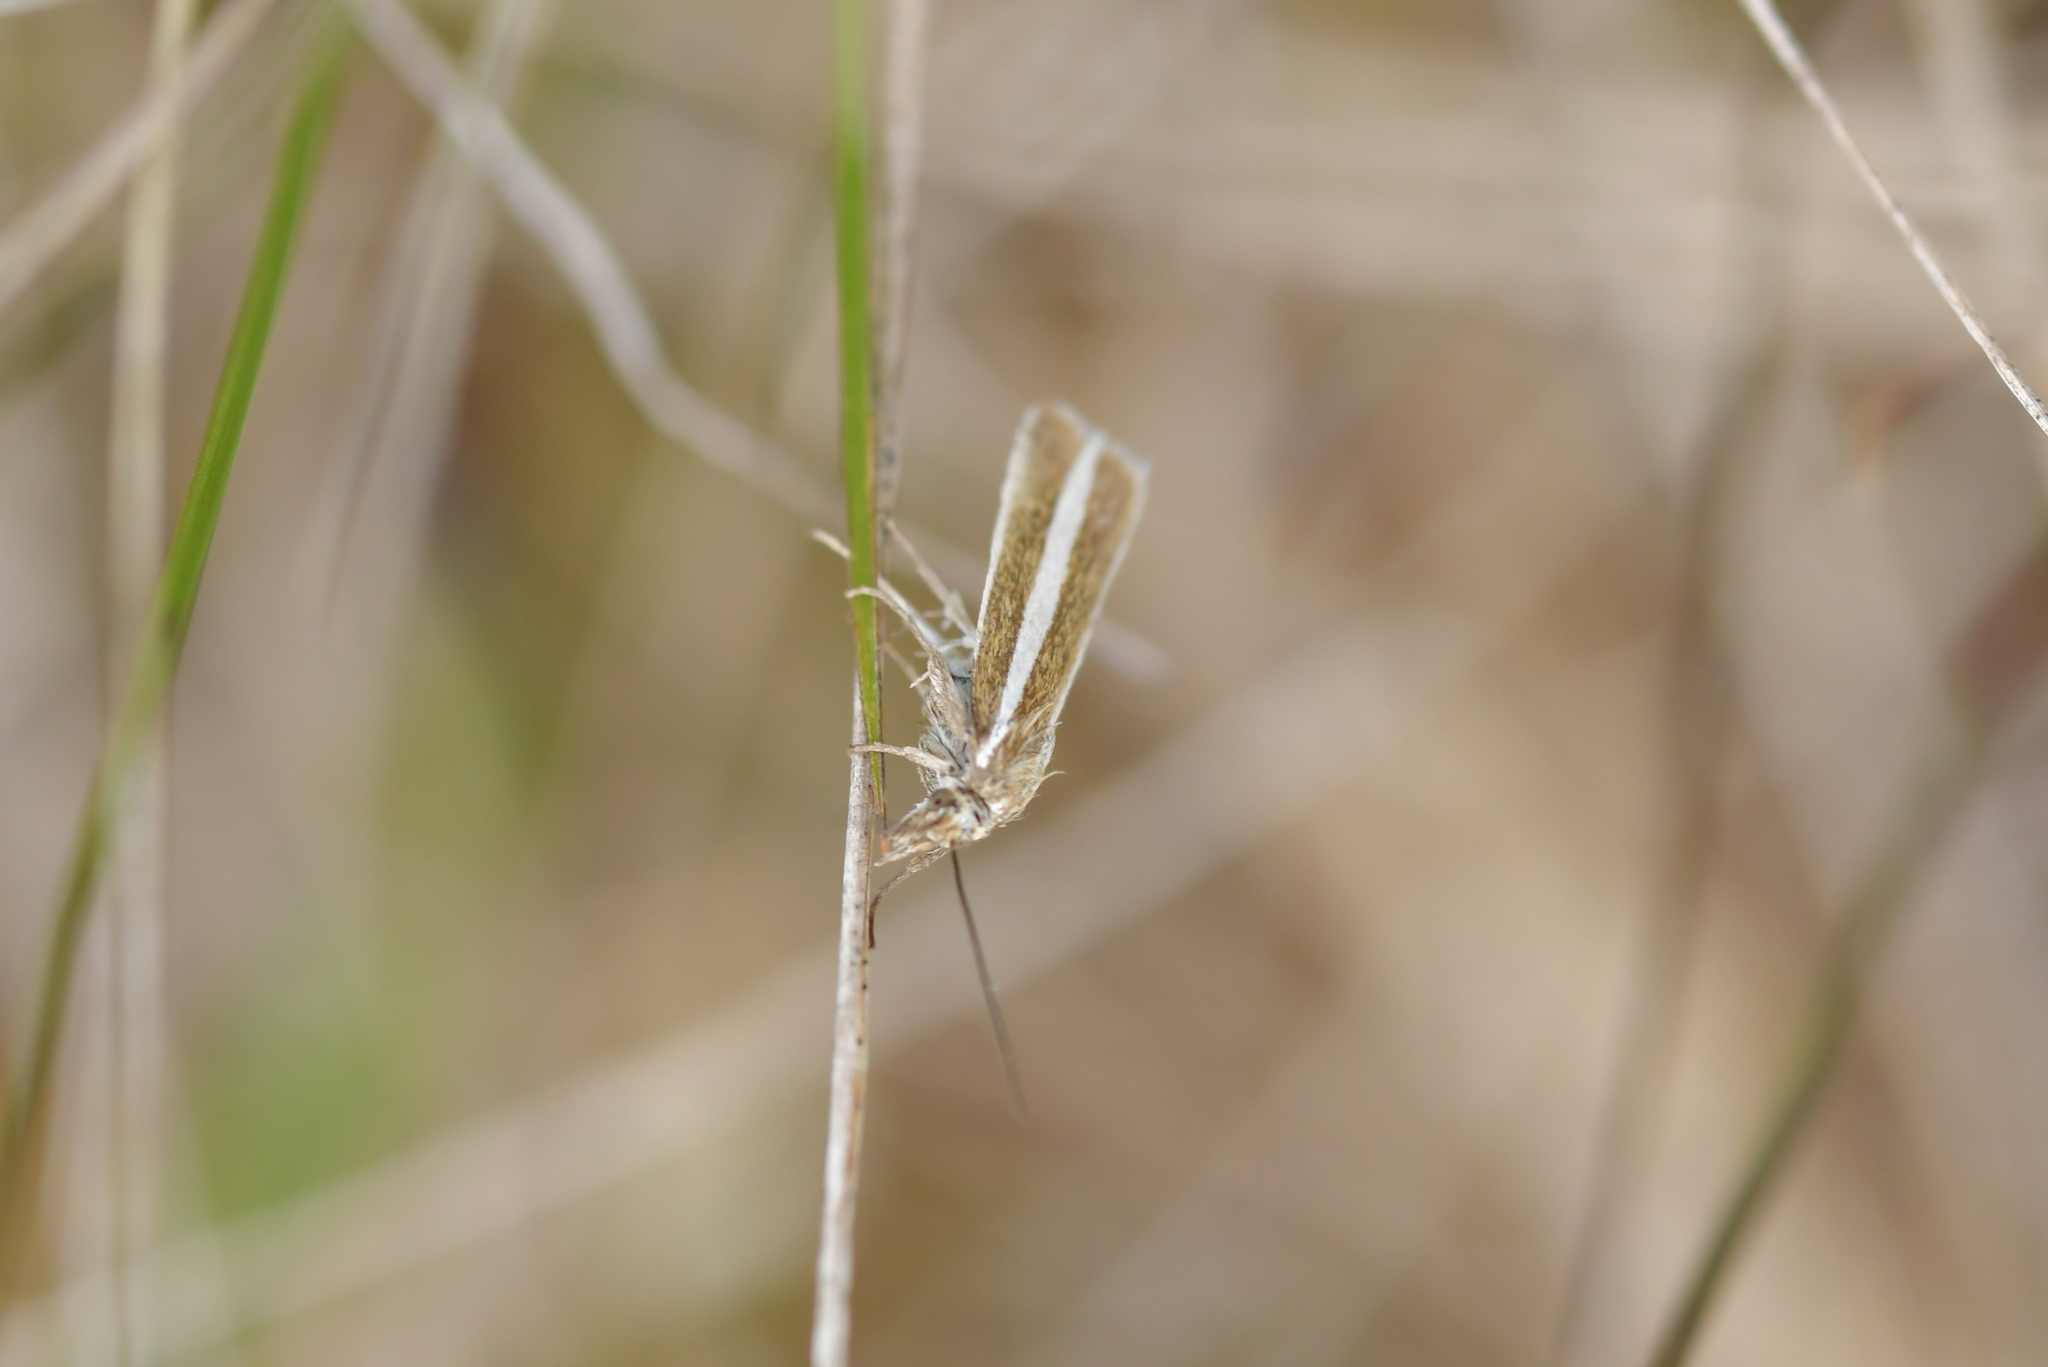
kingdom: Animalia
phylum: Arthropoda
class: Insecta
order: Lepidoptera
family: Crambidae
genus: Orocrambus
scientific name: Orocrambus aethonellus
